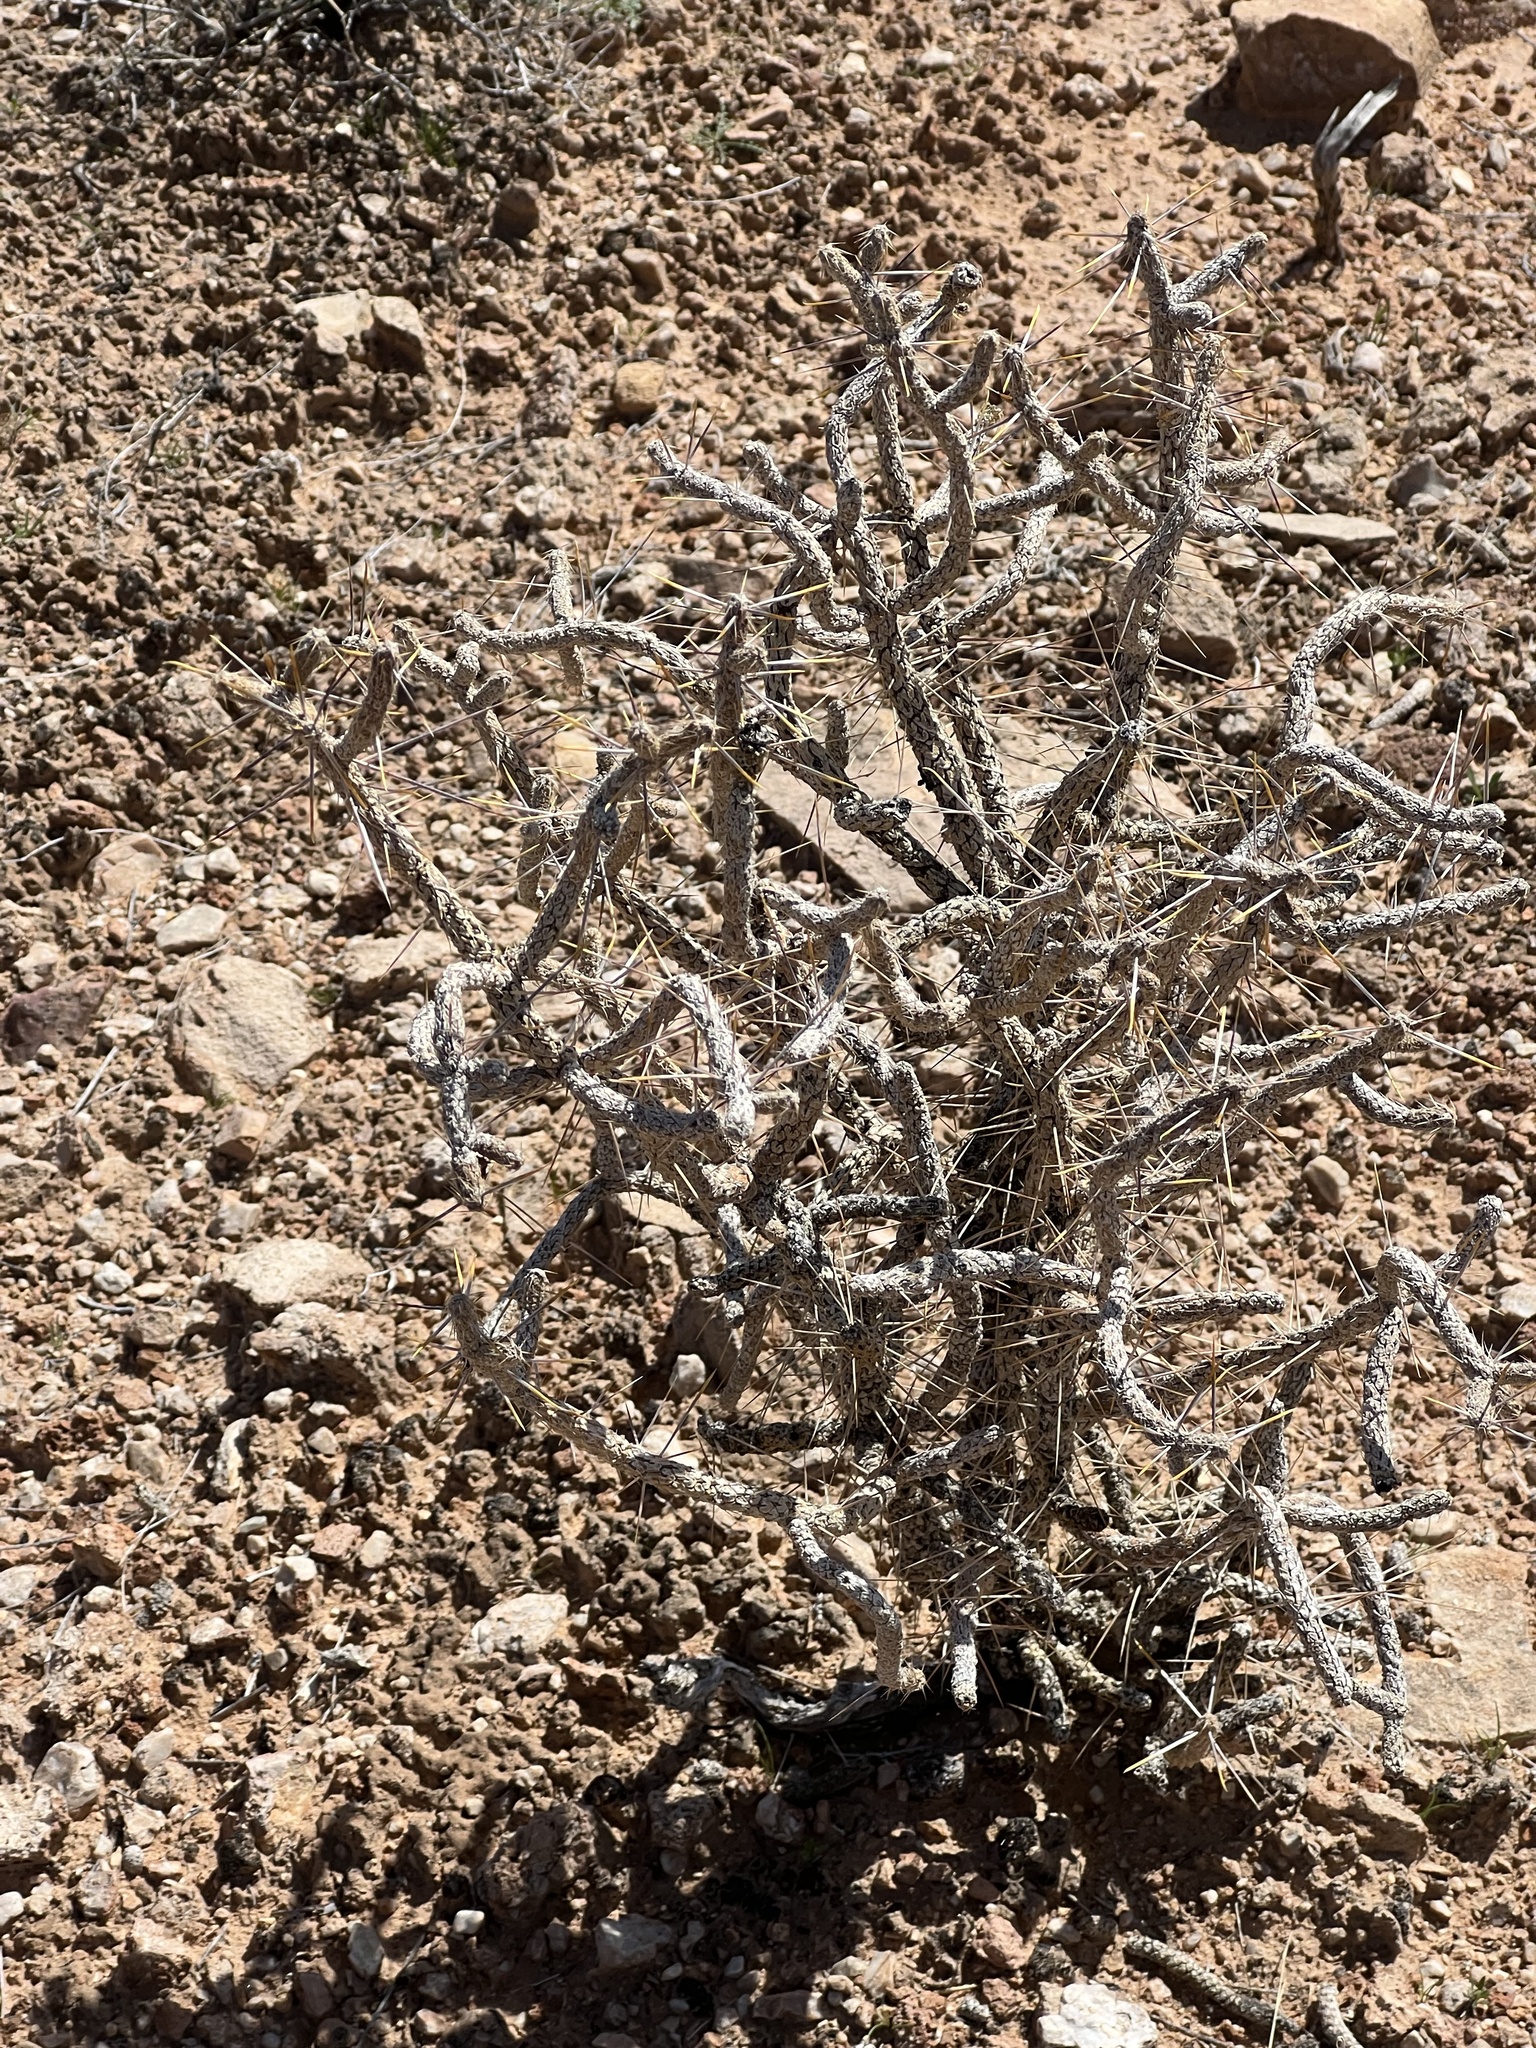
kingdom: Plantae
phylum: Tracheophyta
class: Magnoliopsida
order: Caryophyllales
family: Cactaceae
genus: Cylindropuntia
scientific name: Cylindropuntia ramosissima
